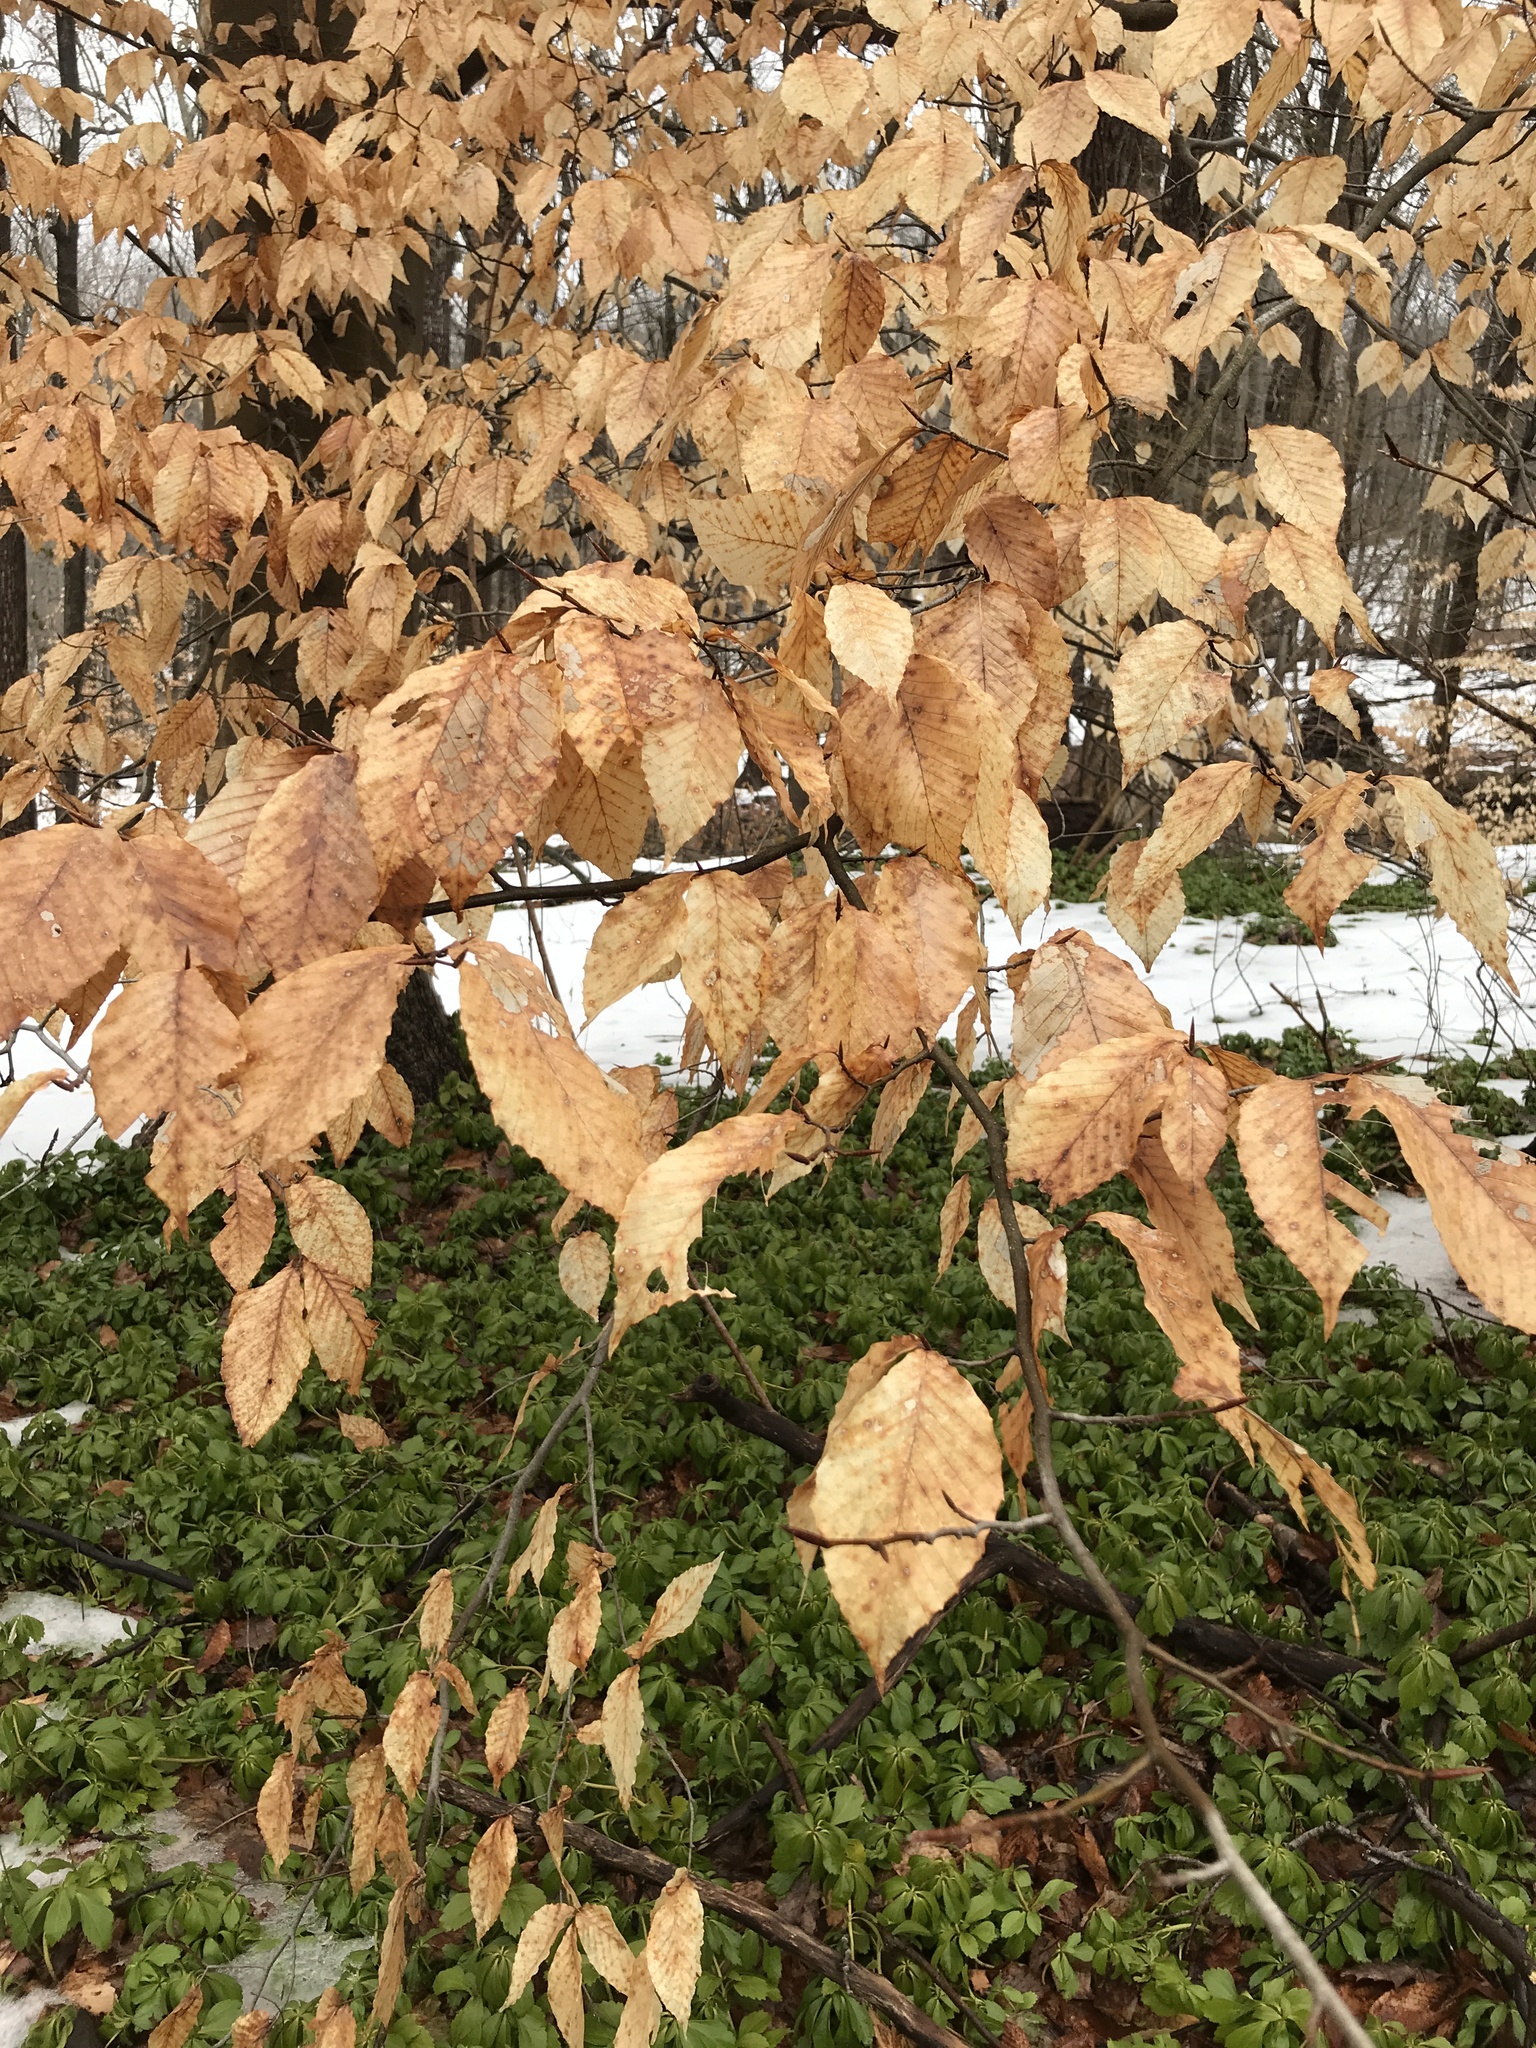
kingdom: Plantae
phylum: Tracheophyta
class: Magnoliopsida
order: Fagales
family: Fagaceae
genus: Fagus
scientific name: Fagus grandifolia
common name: American beech
